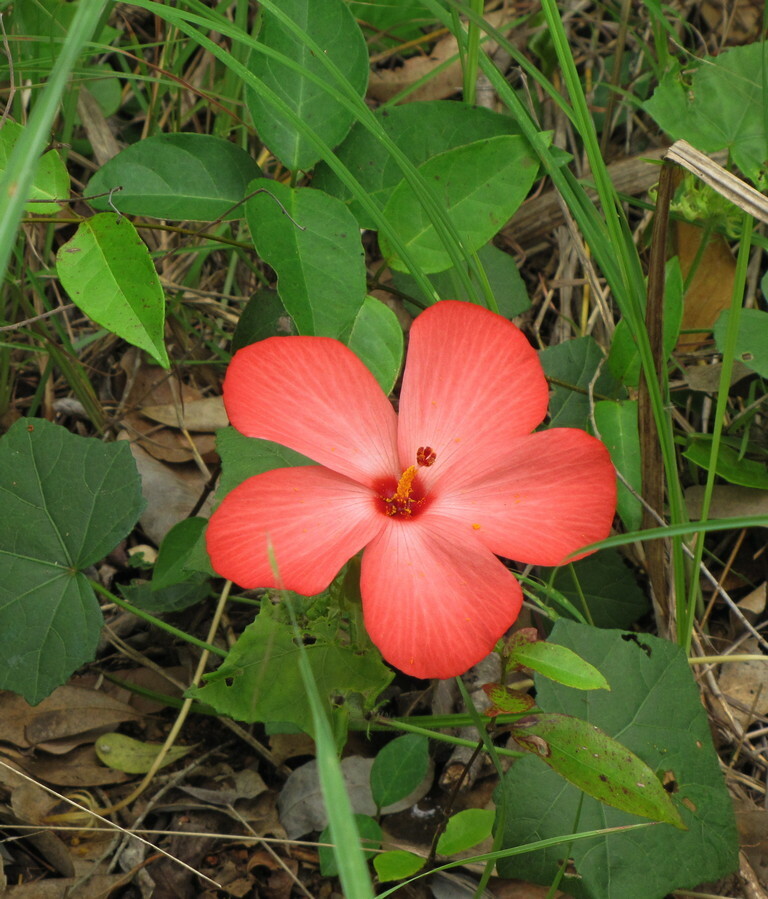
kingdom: Plantae
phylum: Tracheophyta
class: Magnoliopsida
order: Malvales
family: Malvaceae
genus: Abelmoschus
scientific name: Abelmoschus sagittifolius
